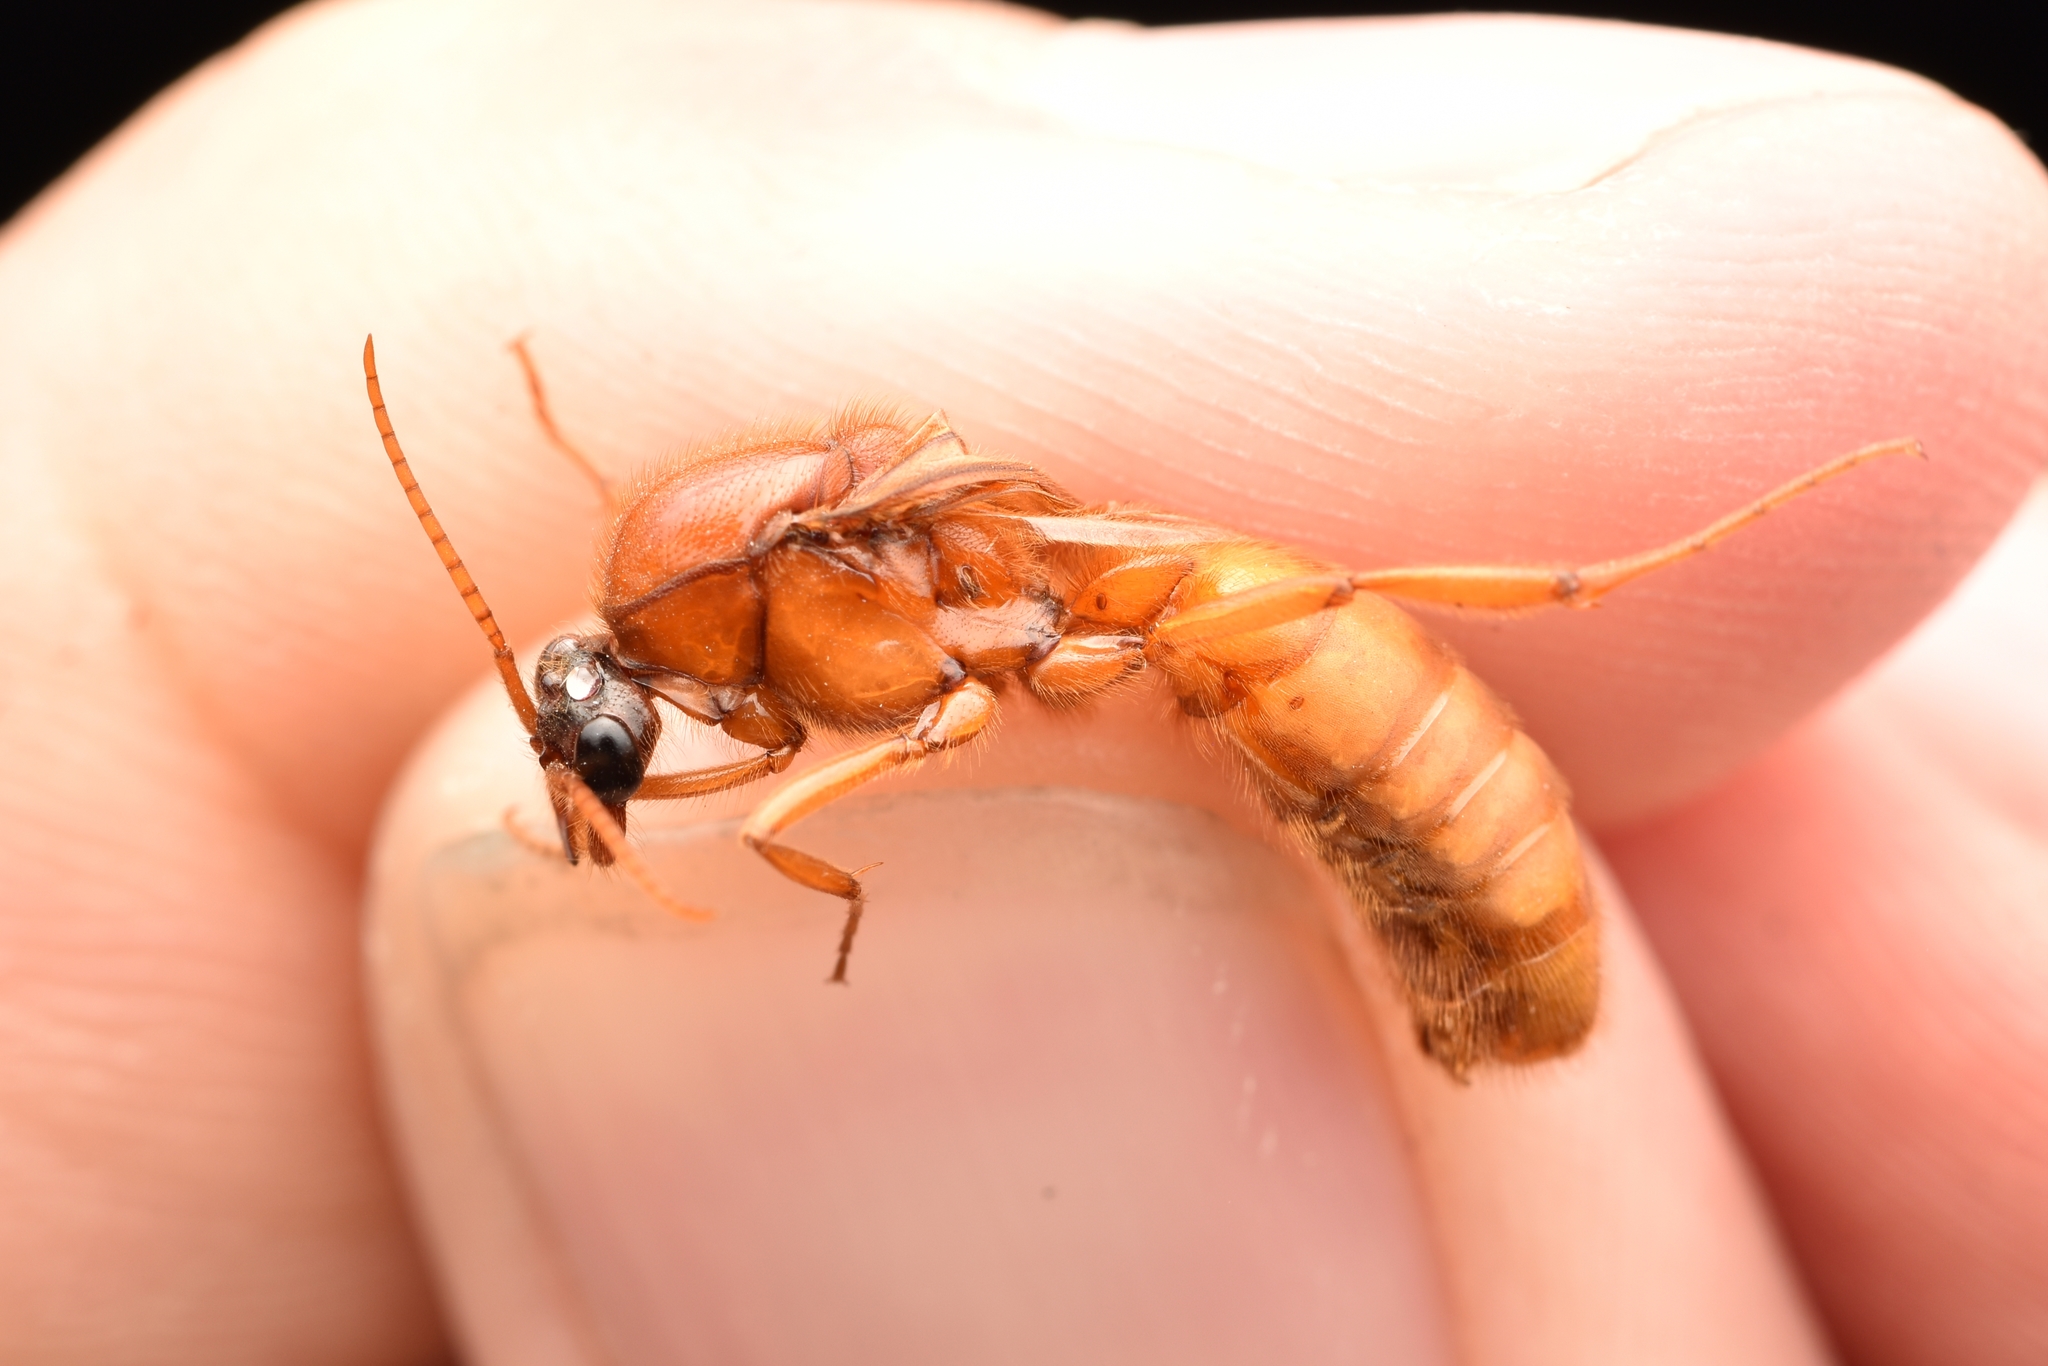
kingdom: Animalia
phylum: Arthropoda
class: Insecta
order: Hymenoptera
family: Formicidae
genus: Labidus
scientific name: Labidus coecus
